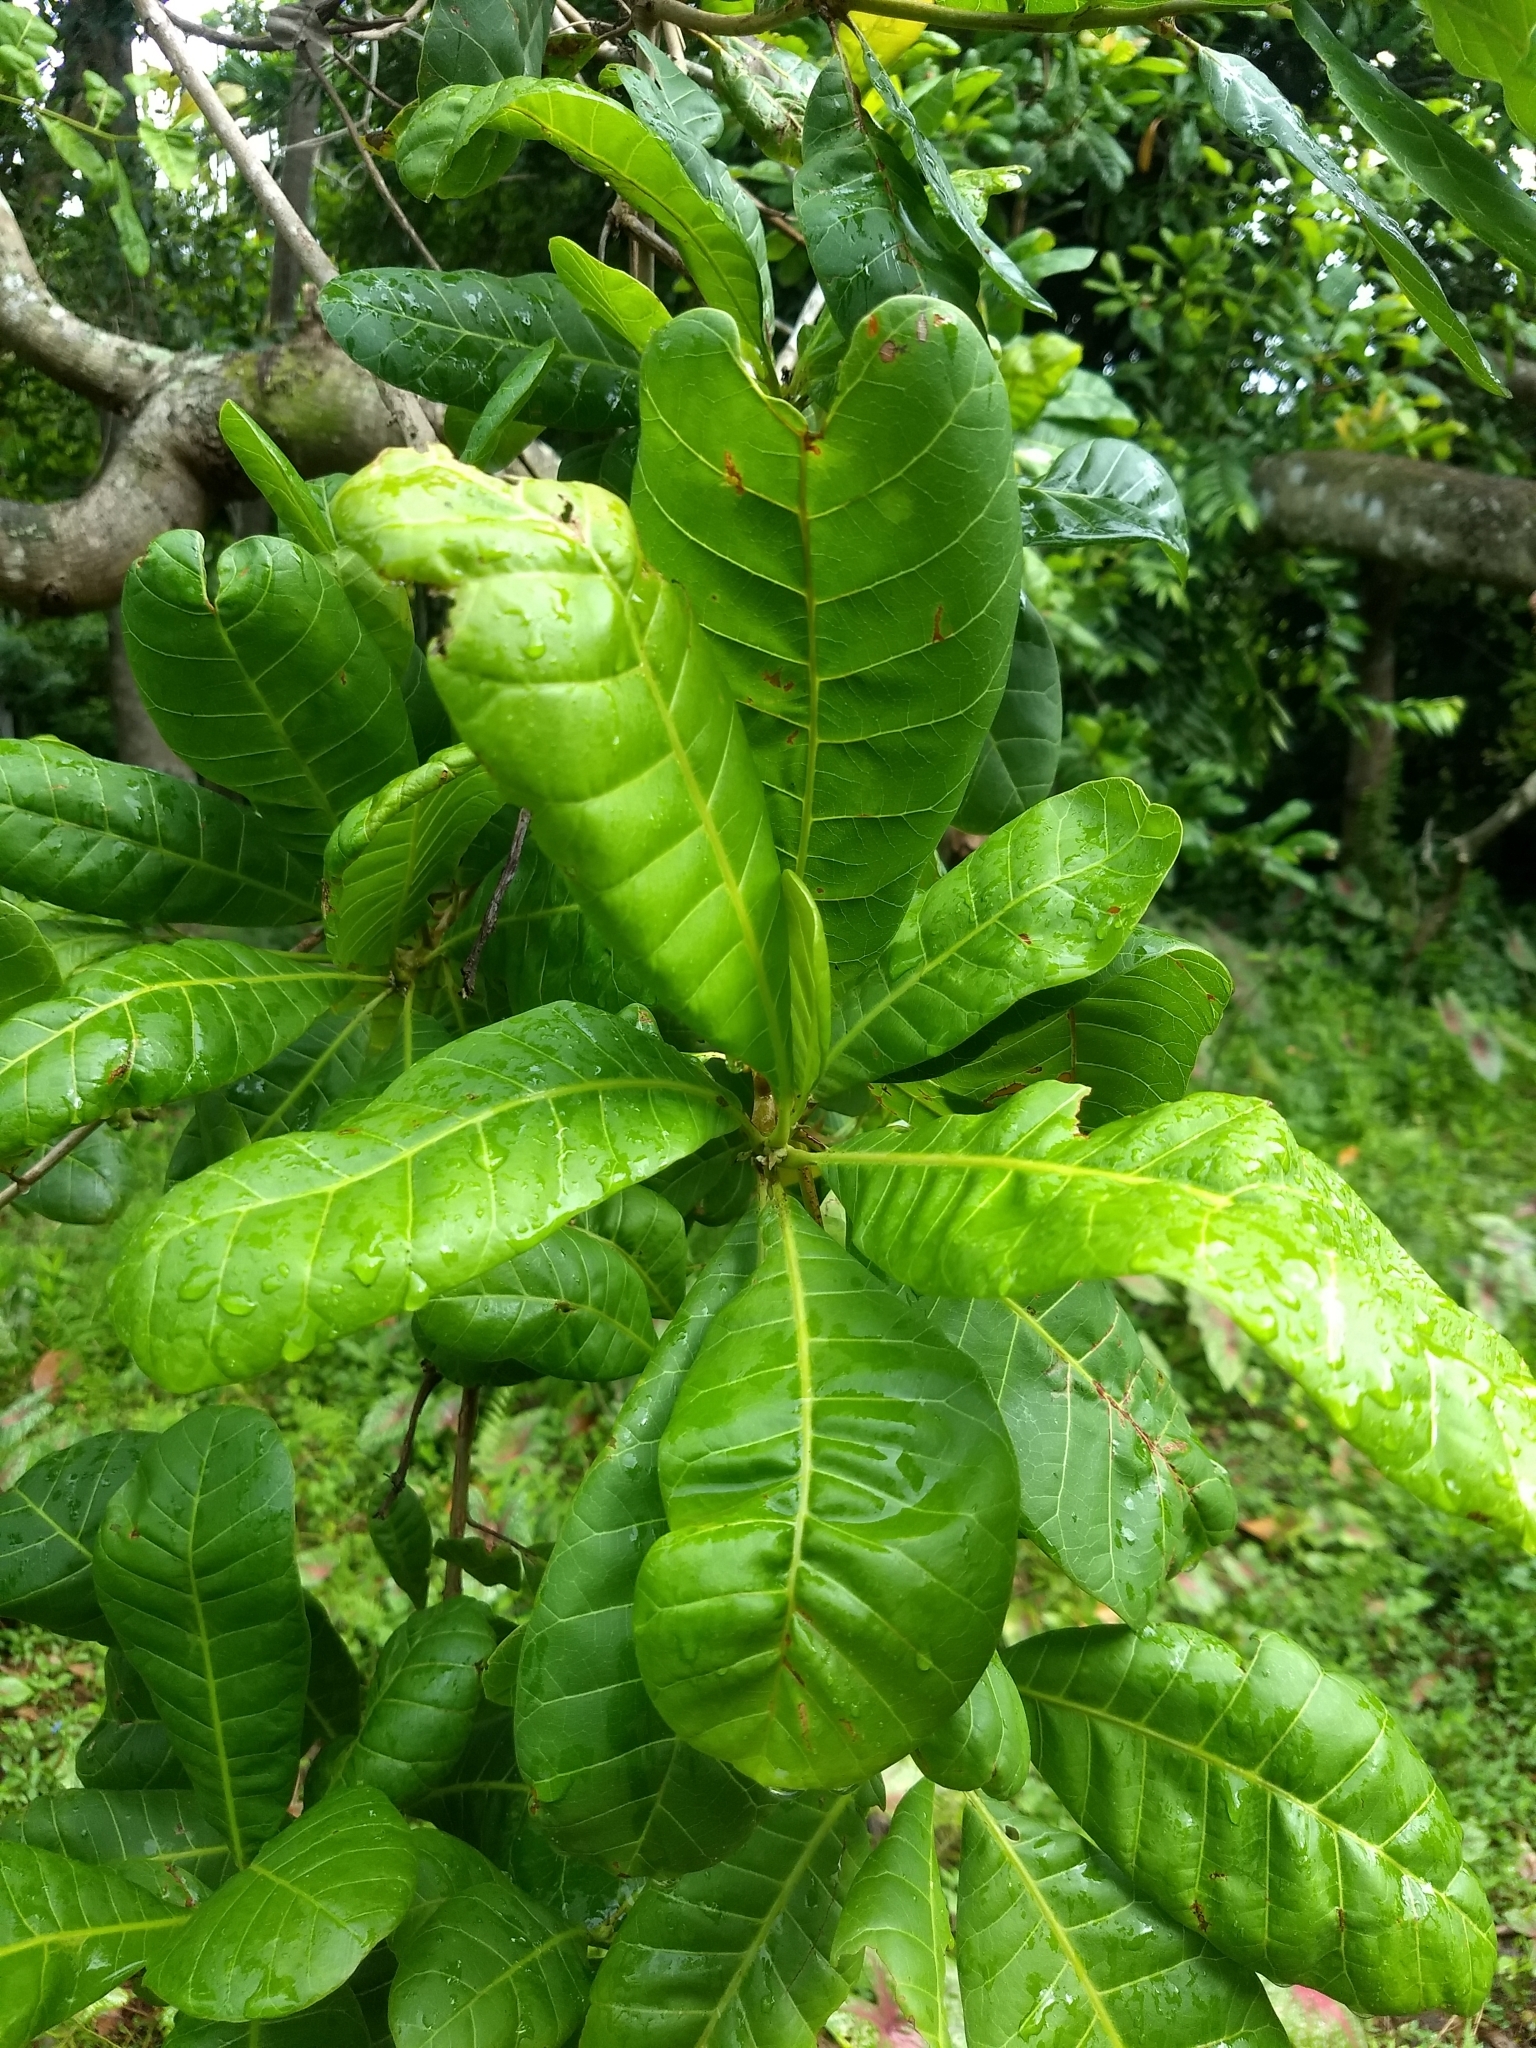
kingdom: Plantae
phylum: Tracheophyta
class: Magnoliopsida
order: Sapindales
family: Anacardiaceae
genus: Anacardium
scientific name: Anacardium occidentale
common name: Cashew
